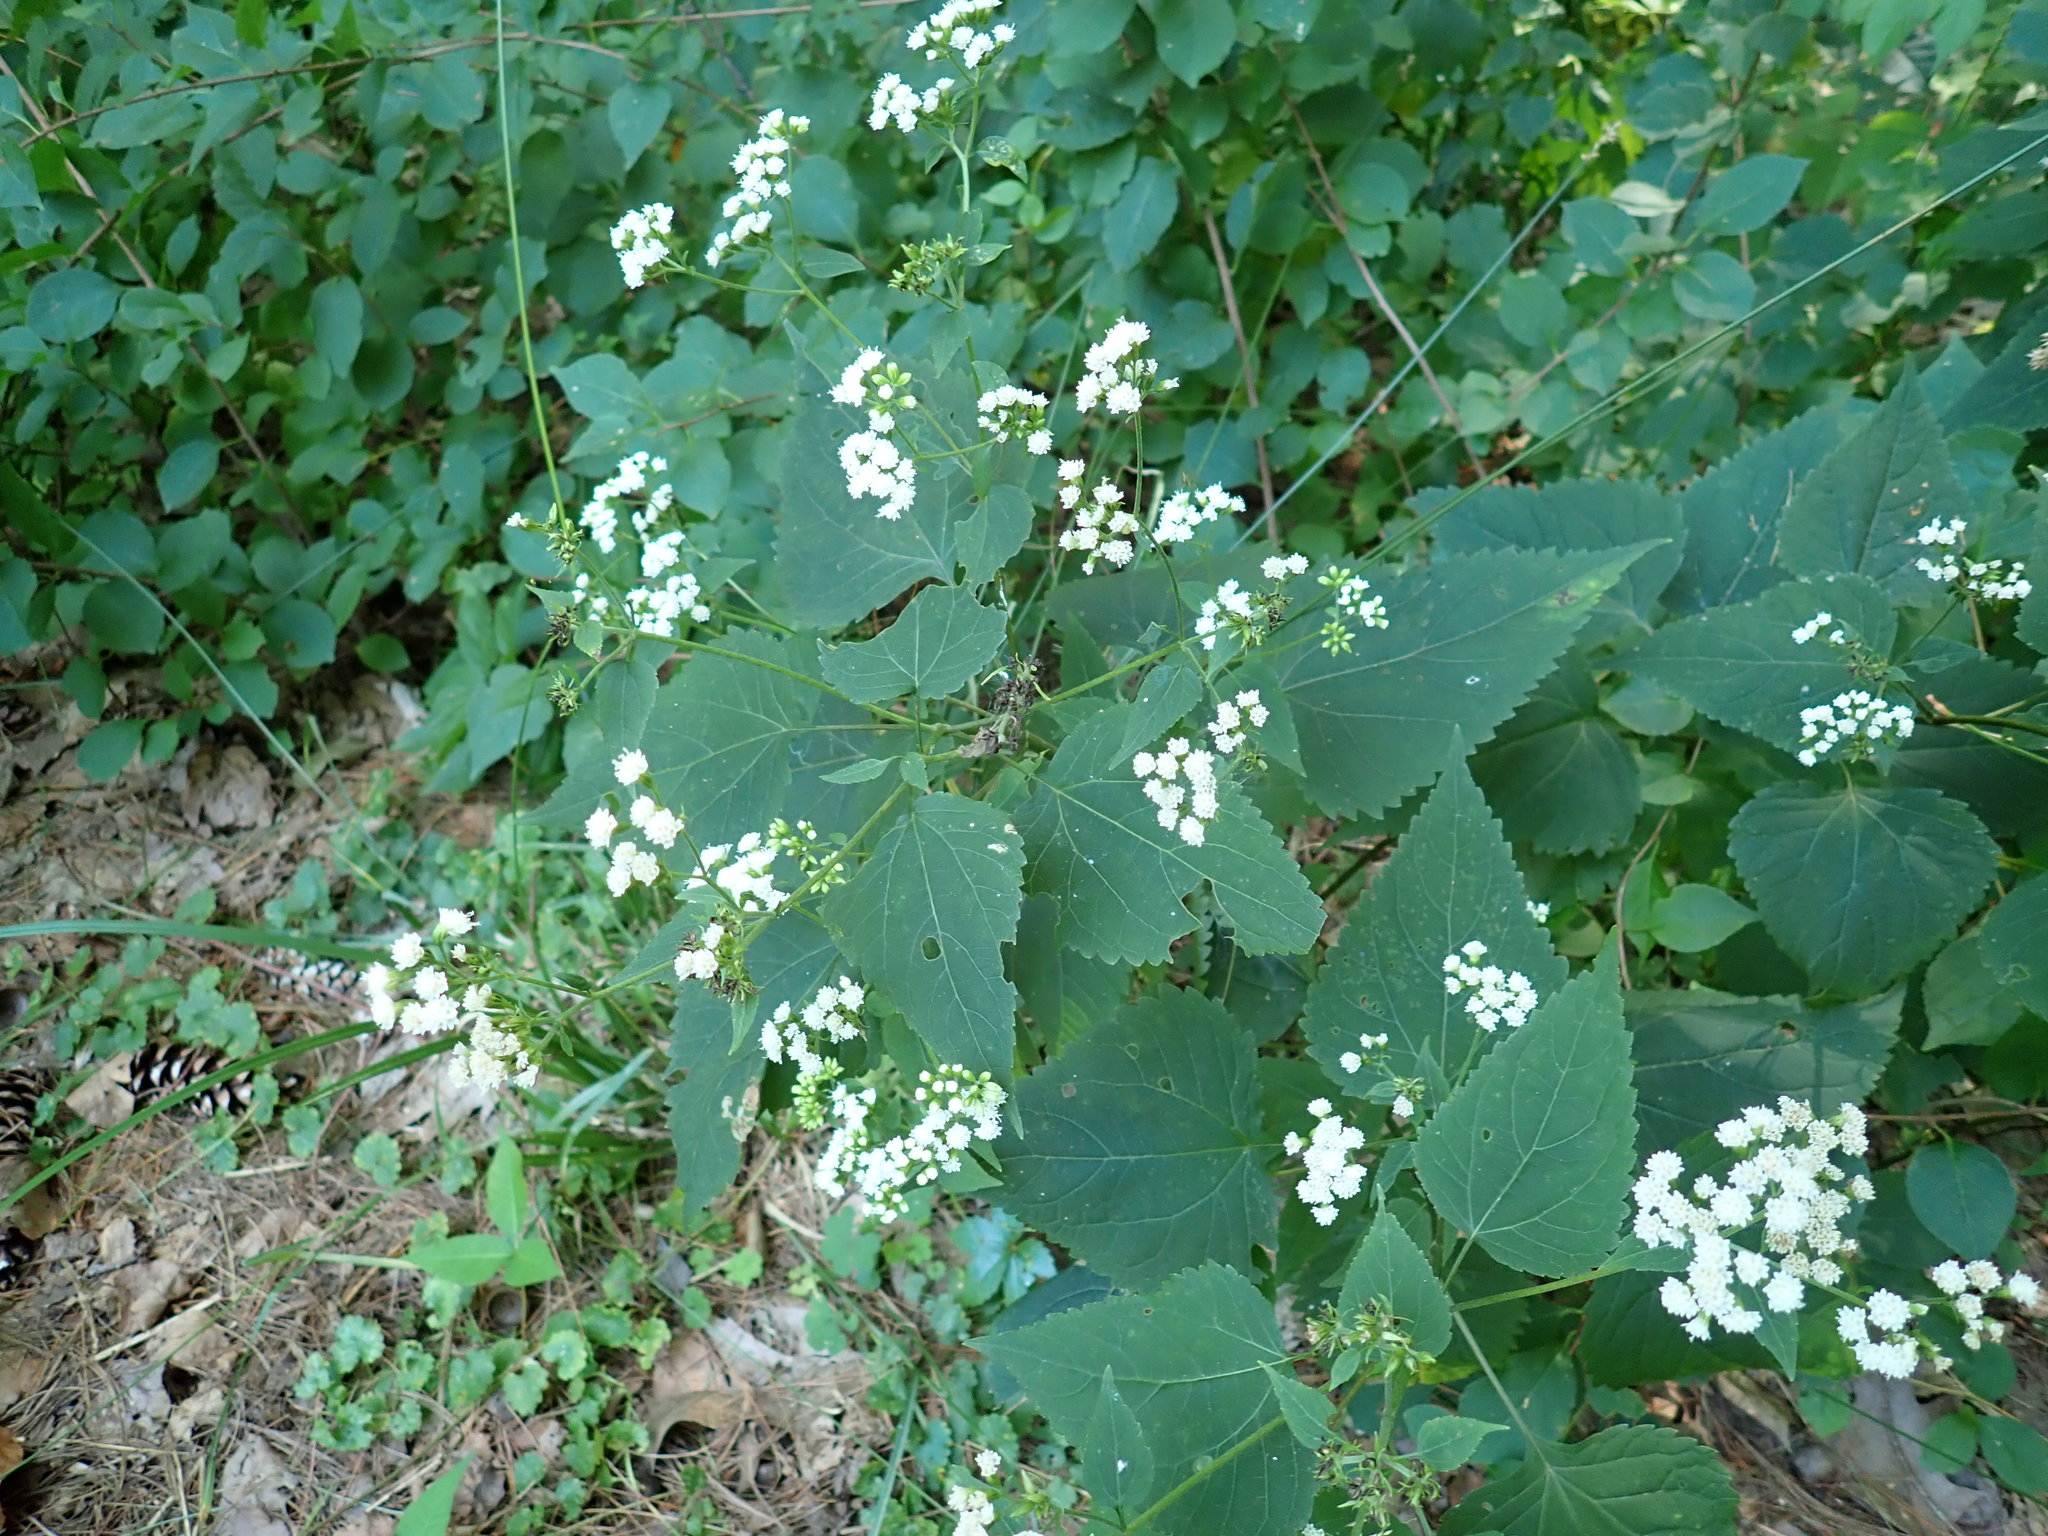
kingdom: Plantae
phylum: Tracheophyta
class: Magnoliopsida
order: Asterales
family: Asteraceae
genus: Ageratina
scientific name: Ageratina altissima
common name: White snakeroot
